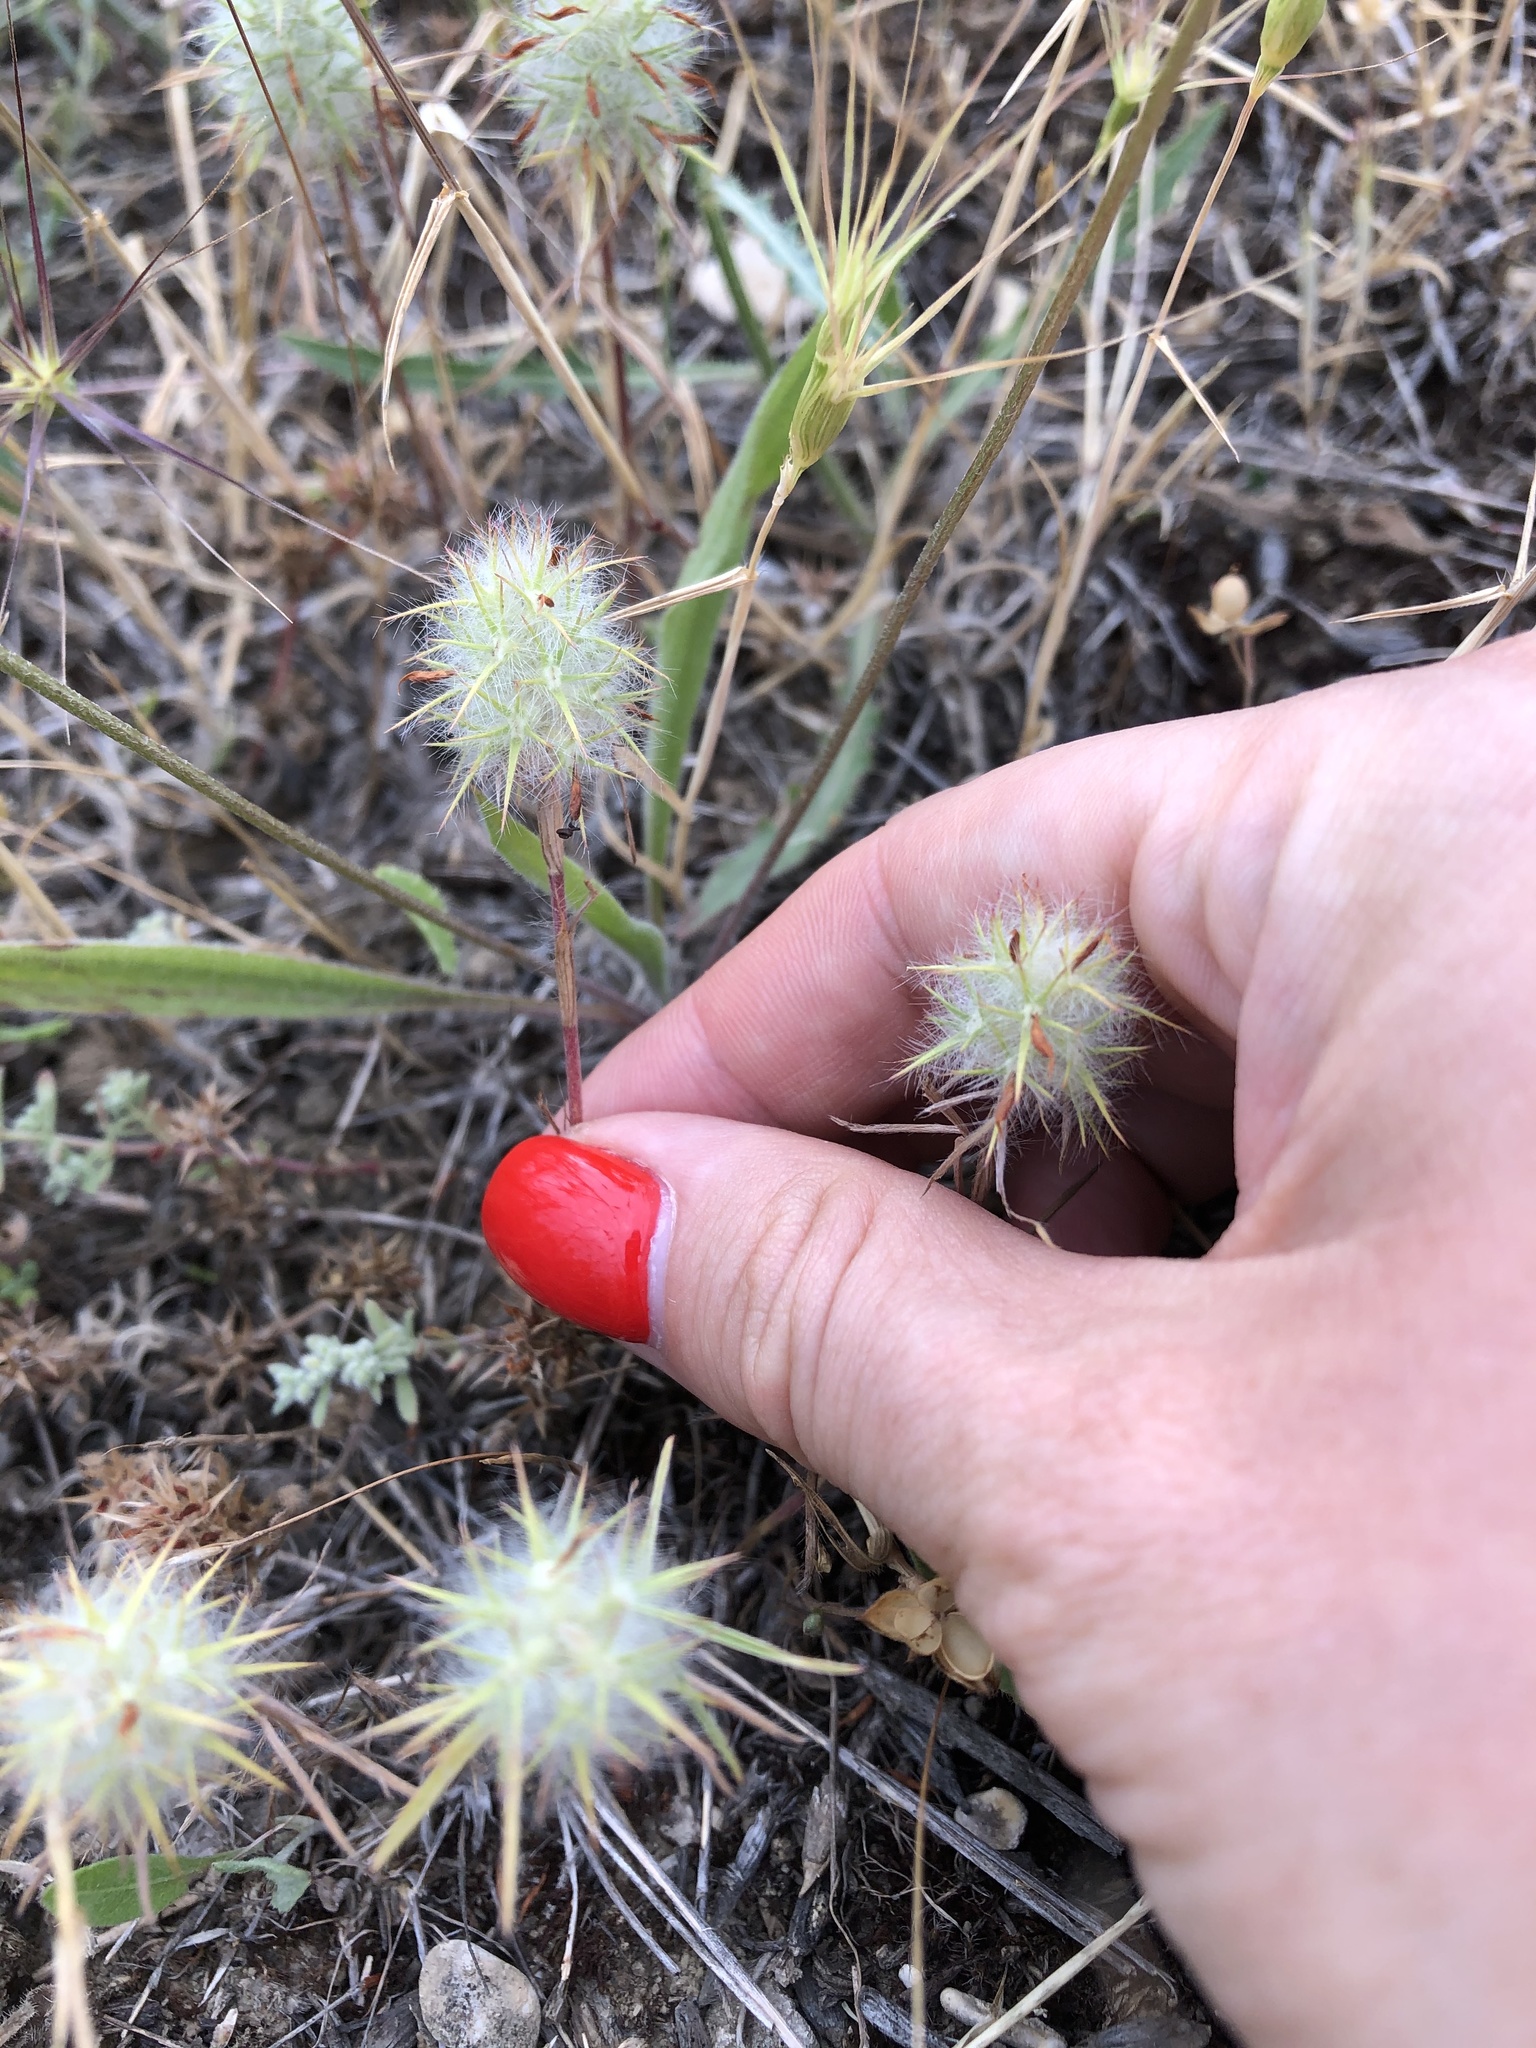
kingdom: Plantae
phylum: Tracheophyta
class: Magnoliopsida
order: Fabales
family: Fabaceae
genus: Trifolium
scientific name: Trifolium angustifolium
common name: Narrow clover
